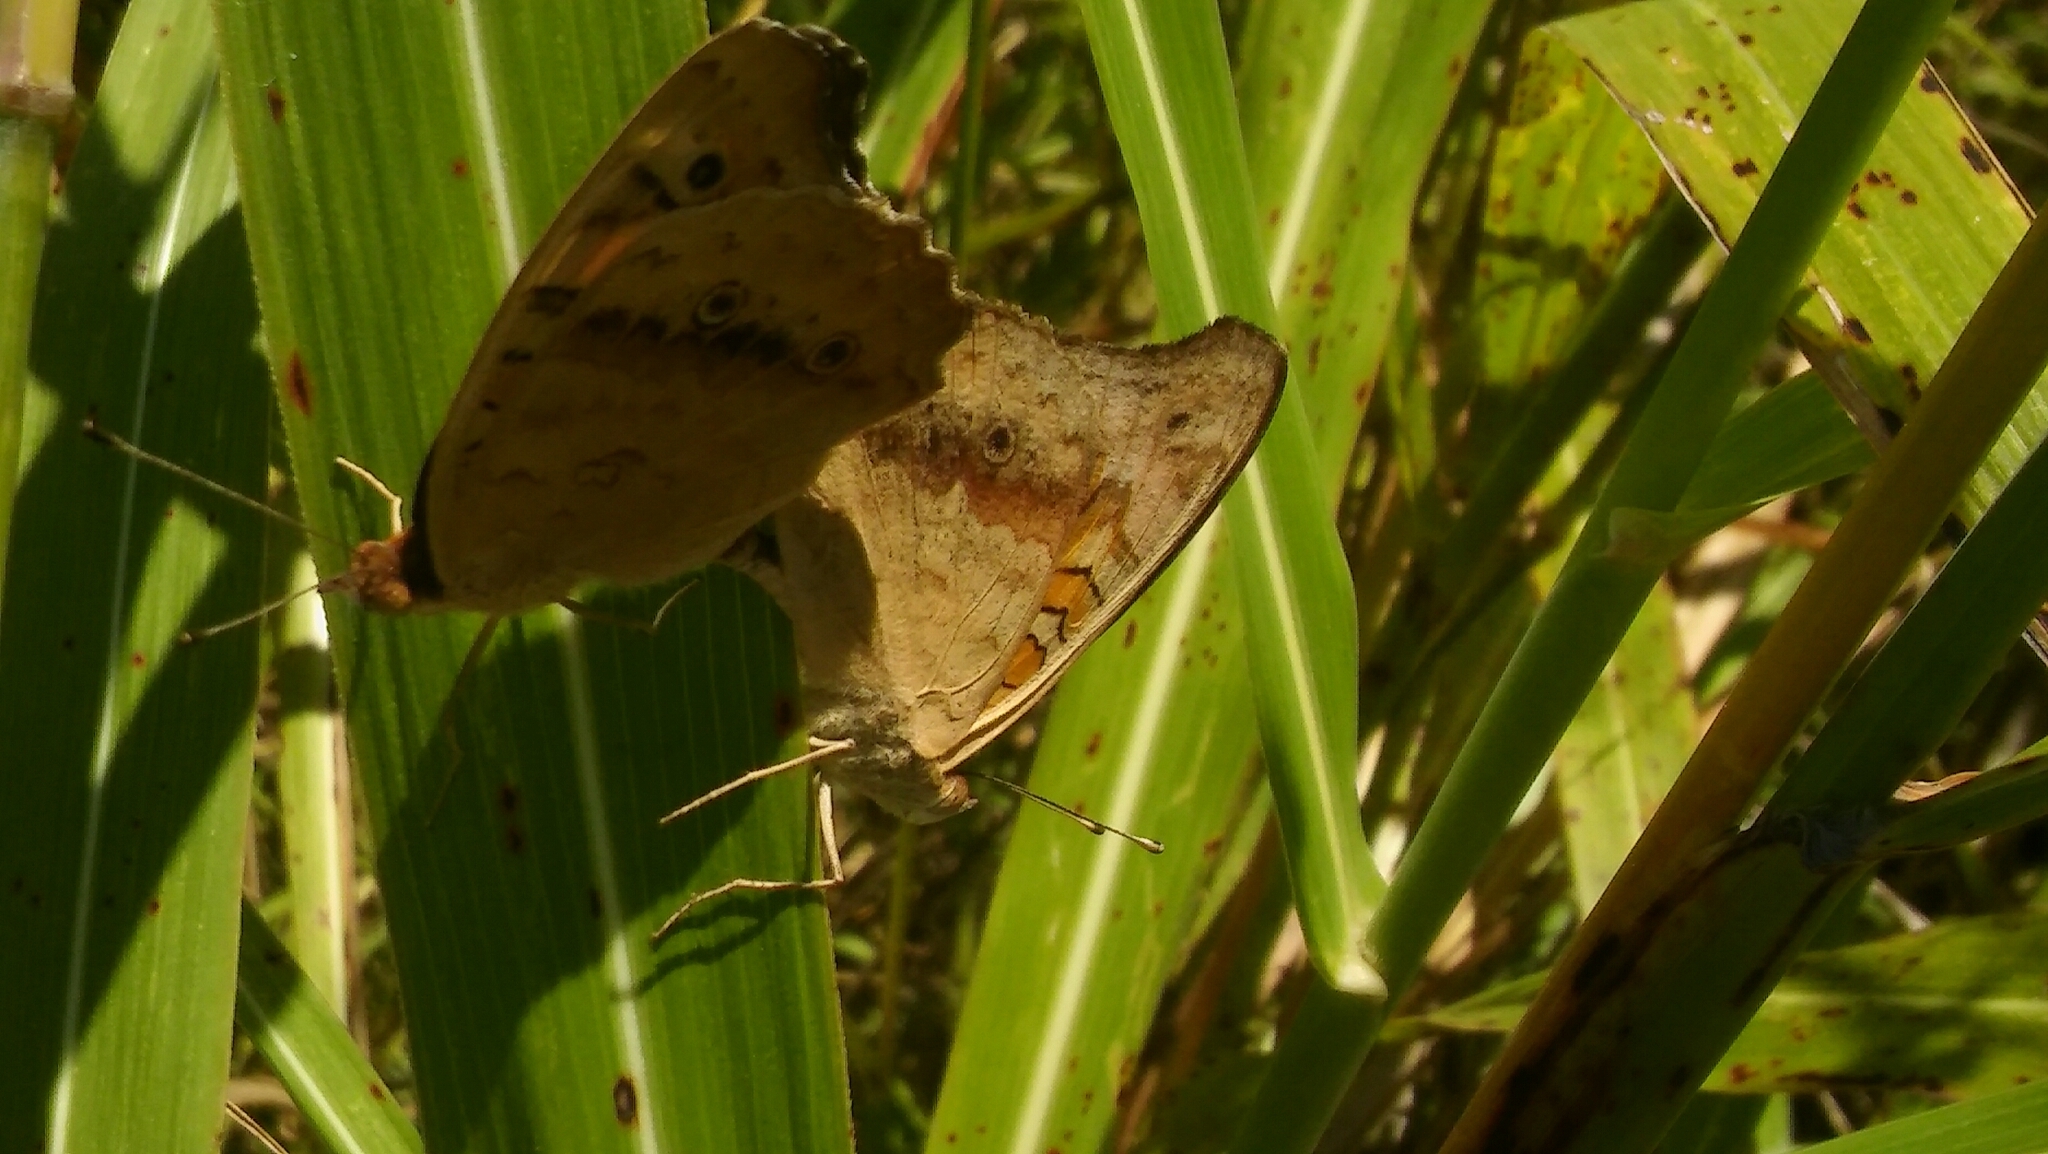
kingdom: Animalia
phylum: Arthropoda
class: Insecta
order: Lepidoptera
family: Nymphalidae
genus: Junonia
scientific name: Junonia lavinia
